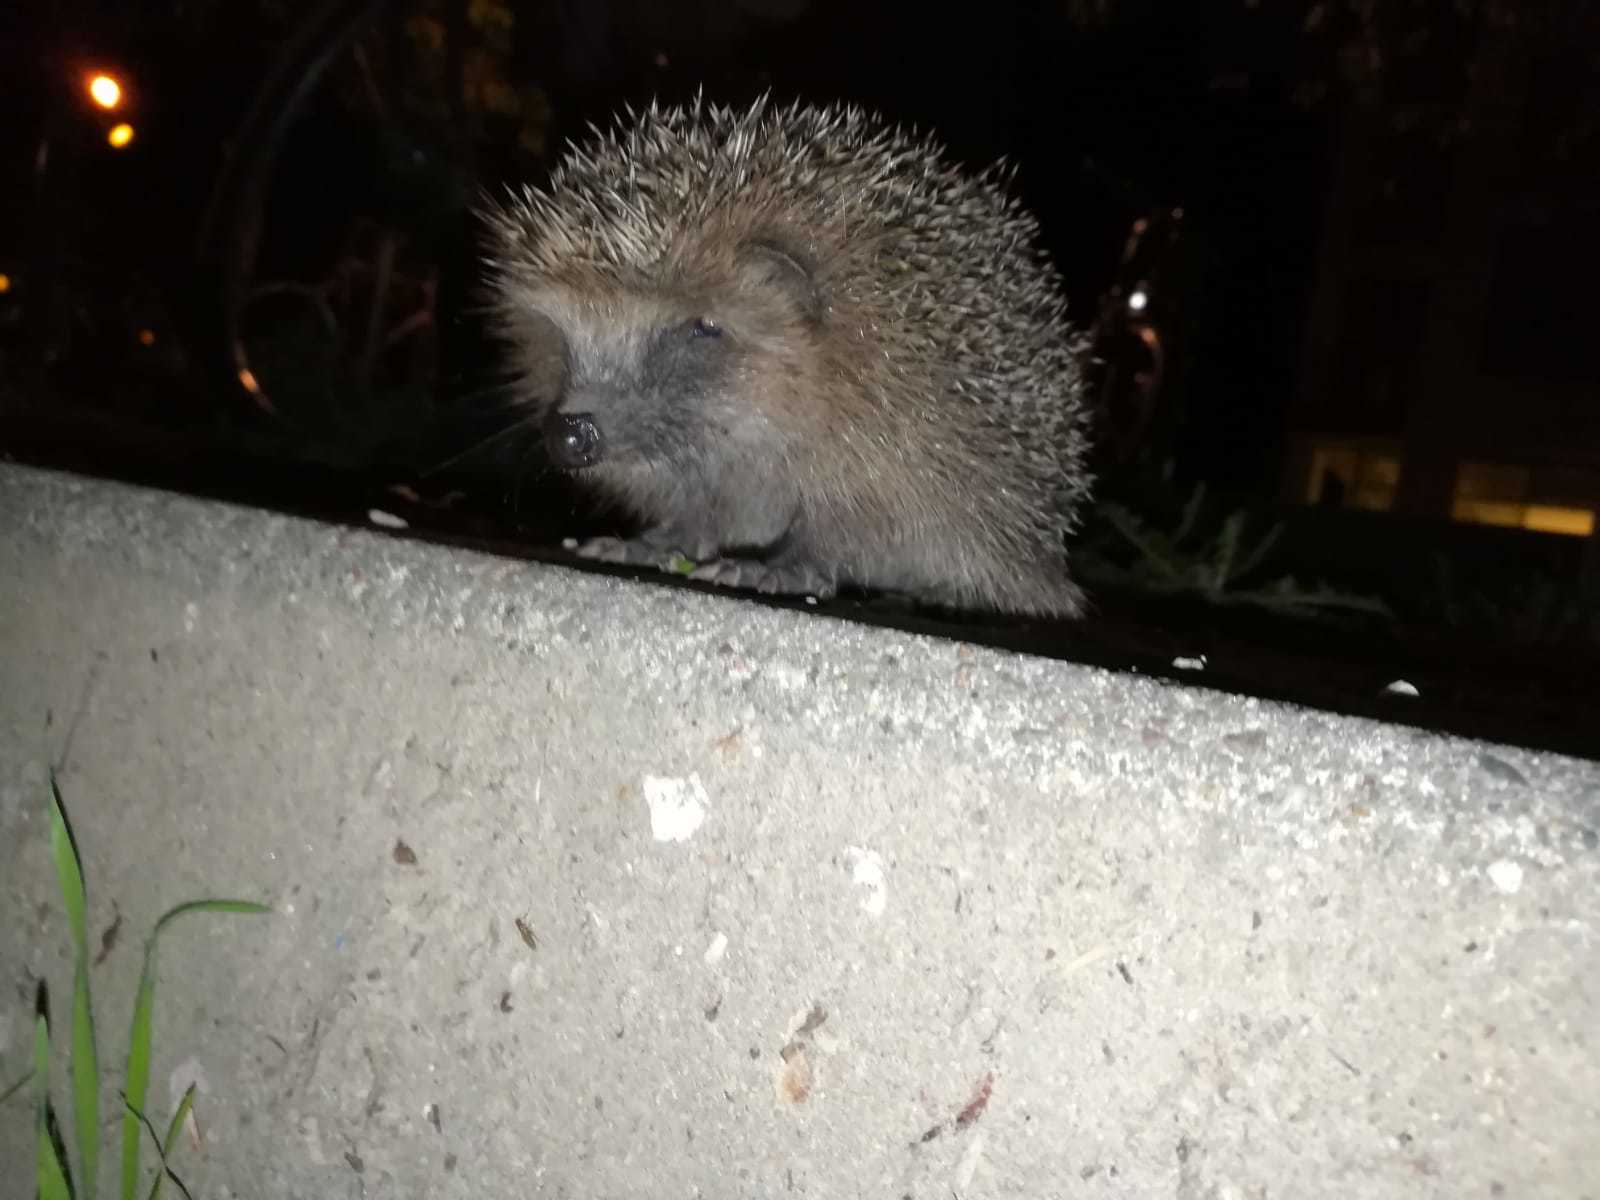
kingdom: Animalia
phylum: Chordata
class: Mammalia
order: Erinaceomorpha
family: Erinaceidae
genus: Erinaceus
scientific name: Erinaceus europaeus
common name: West european hedgehog
